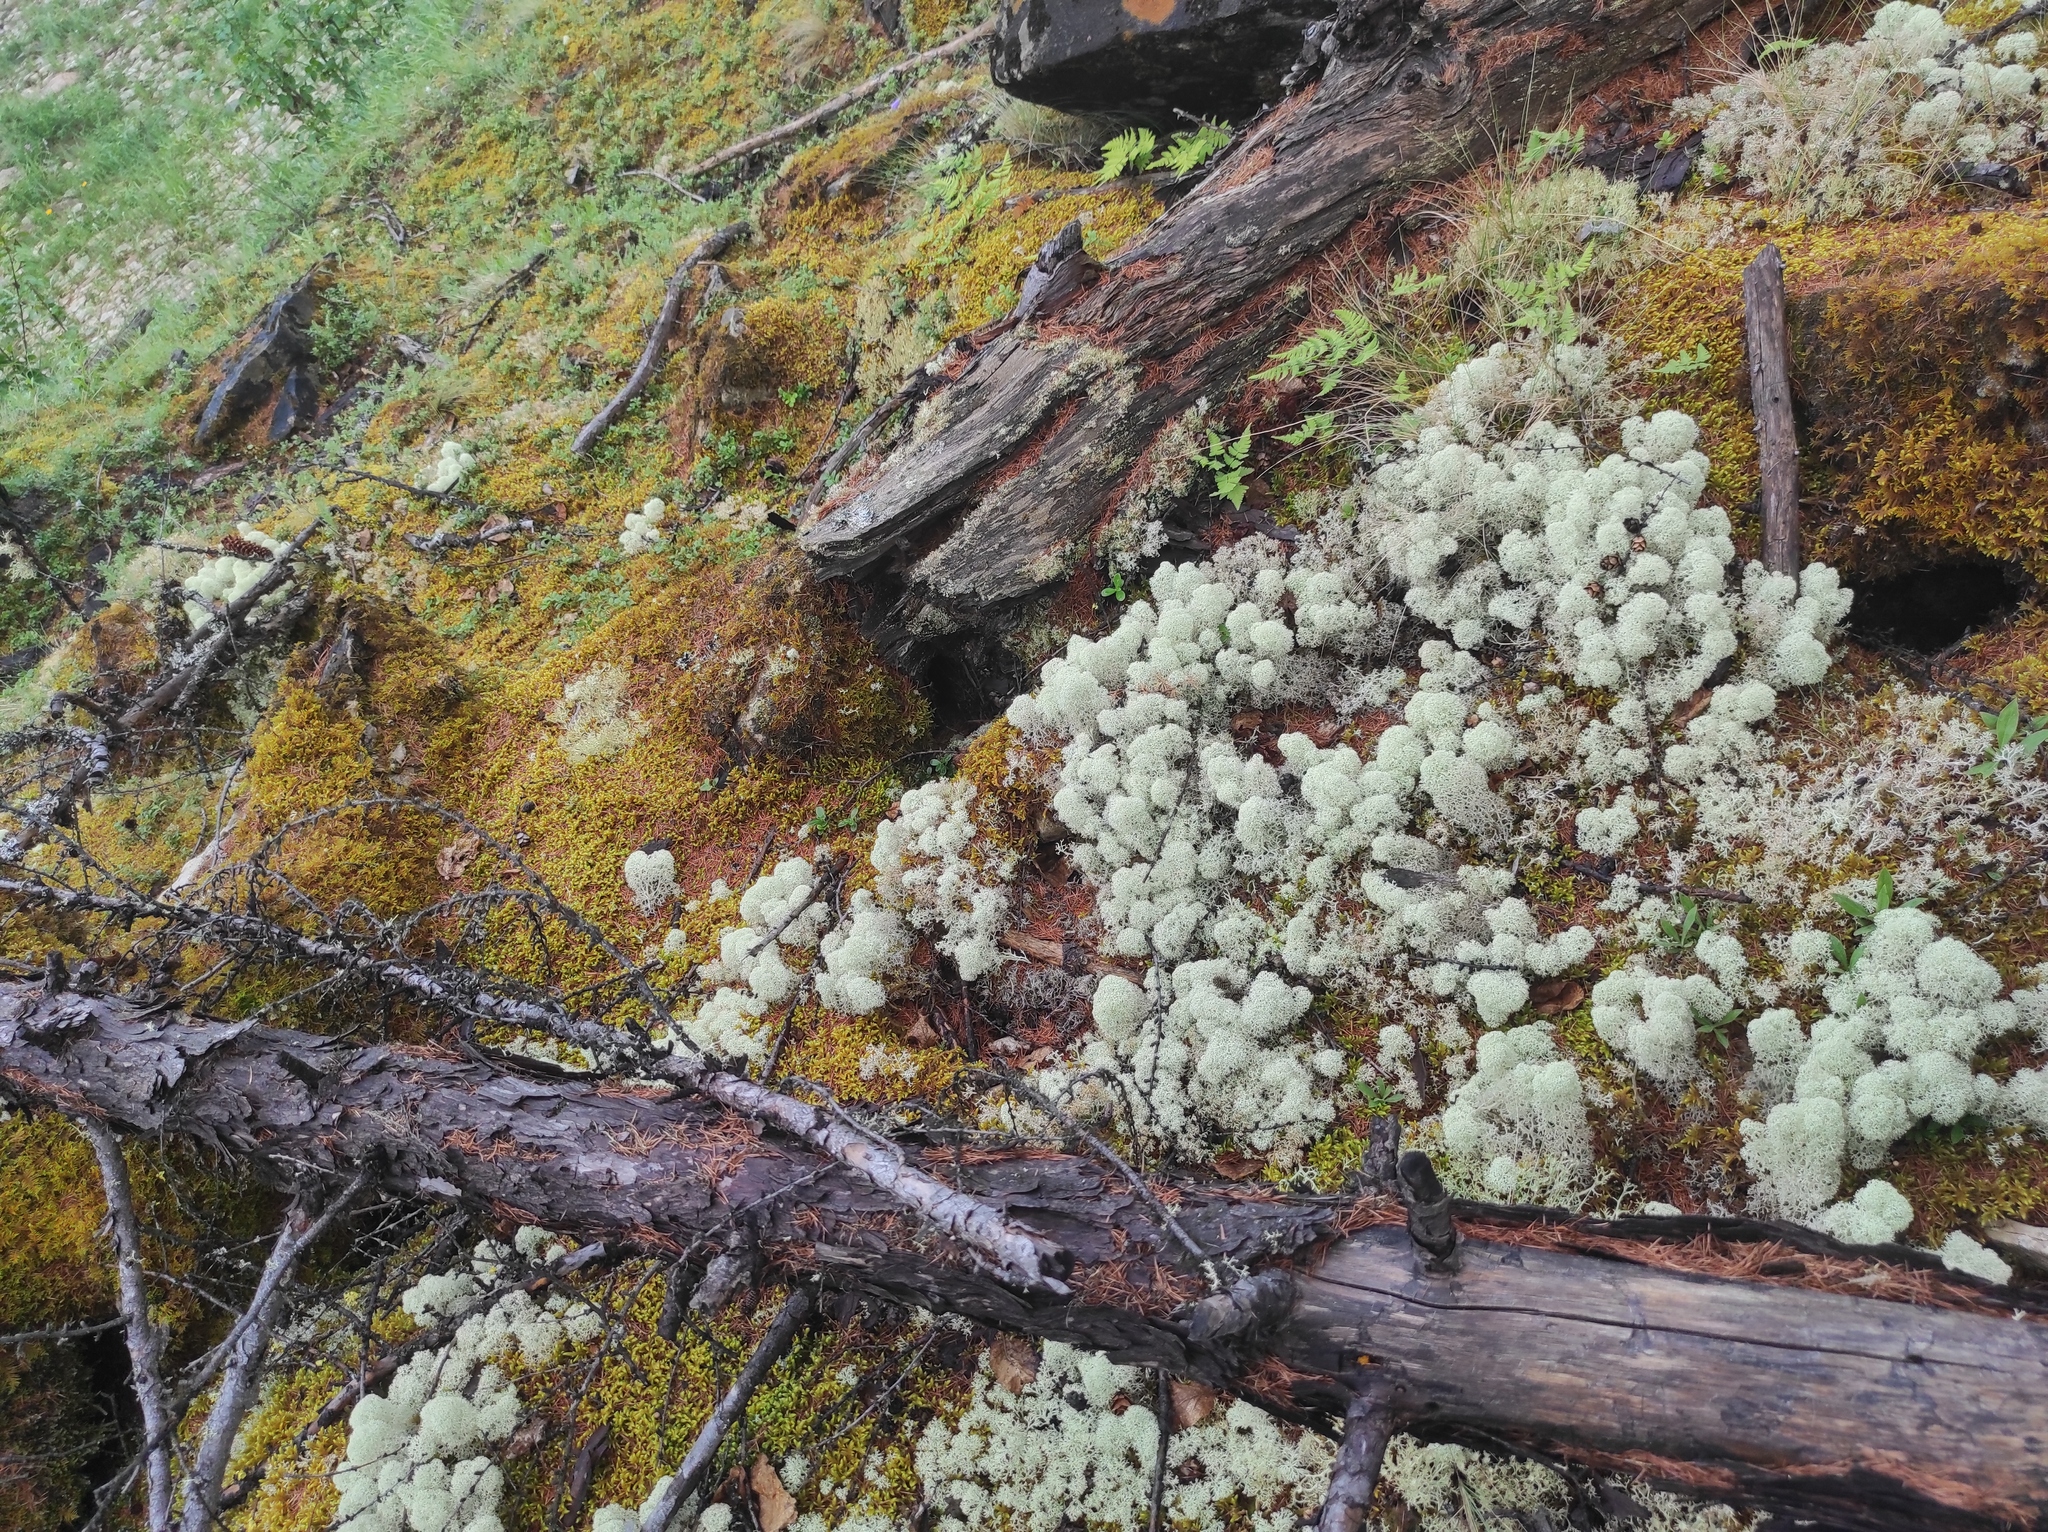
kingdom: Plantae
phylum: Tracheophyta
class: Pinopsida
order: Pinales
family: Pinaceae
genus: Larix
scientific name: Larix gmelinii
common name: Dahurian larch
